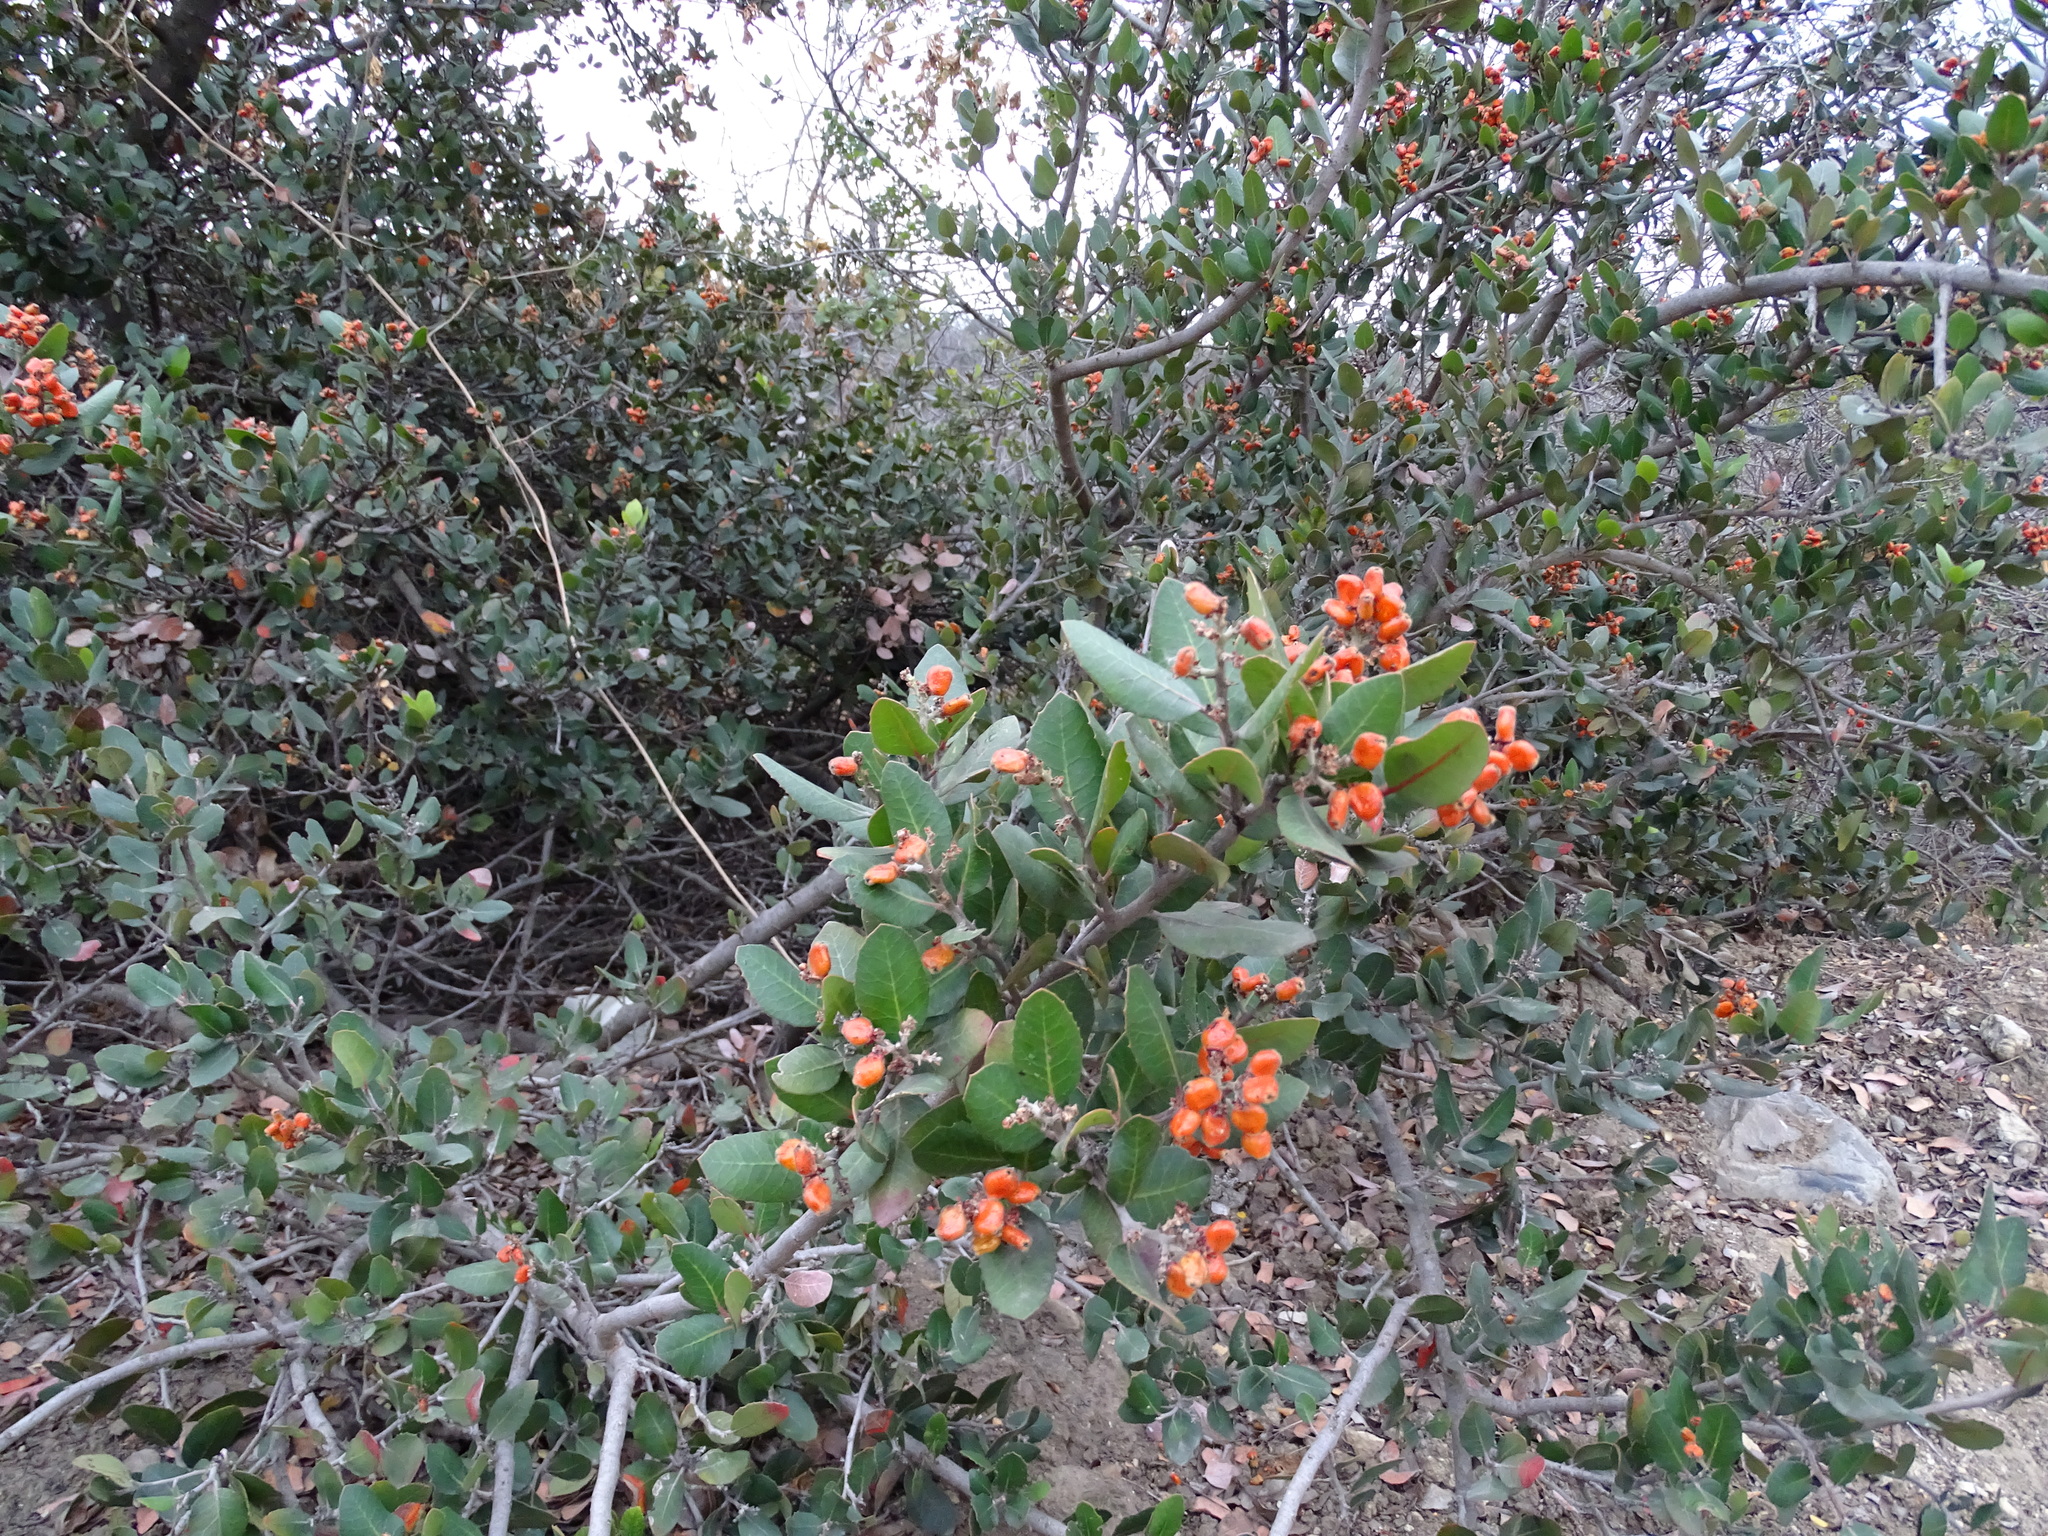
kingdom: Plantae
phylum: Tracheophyta
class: Magnoliopsida
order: Sapindales
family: Anacardiaceae
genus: Rhus
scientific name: Rhus integrifolia
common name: Lemonade sumac
